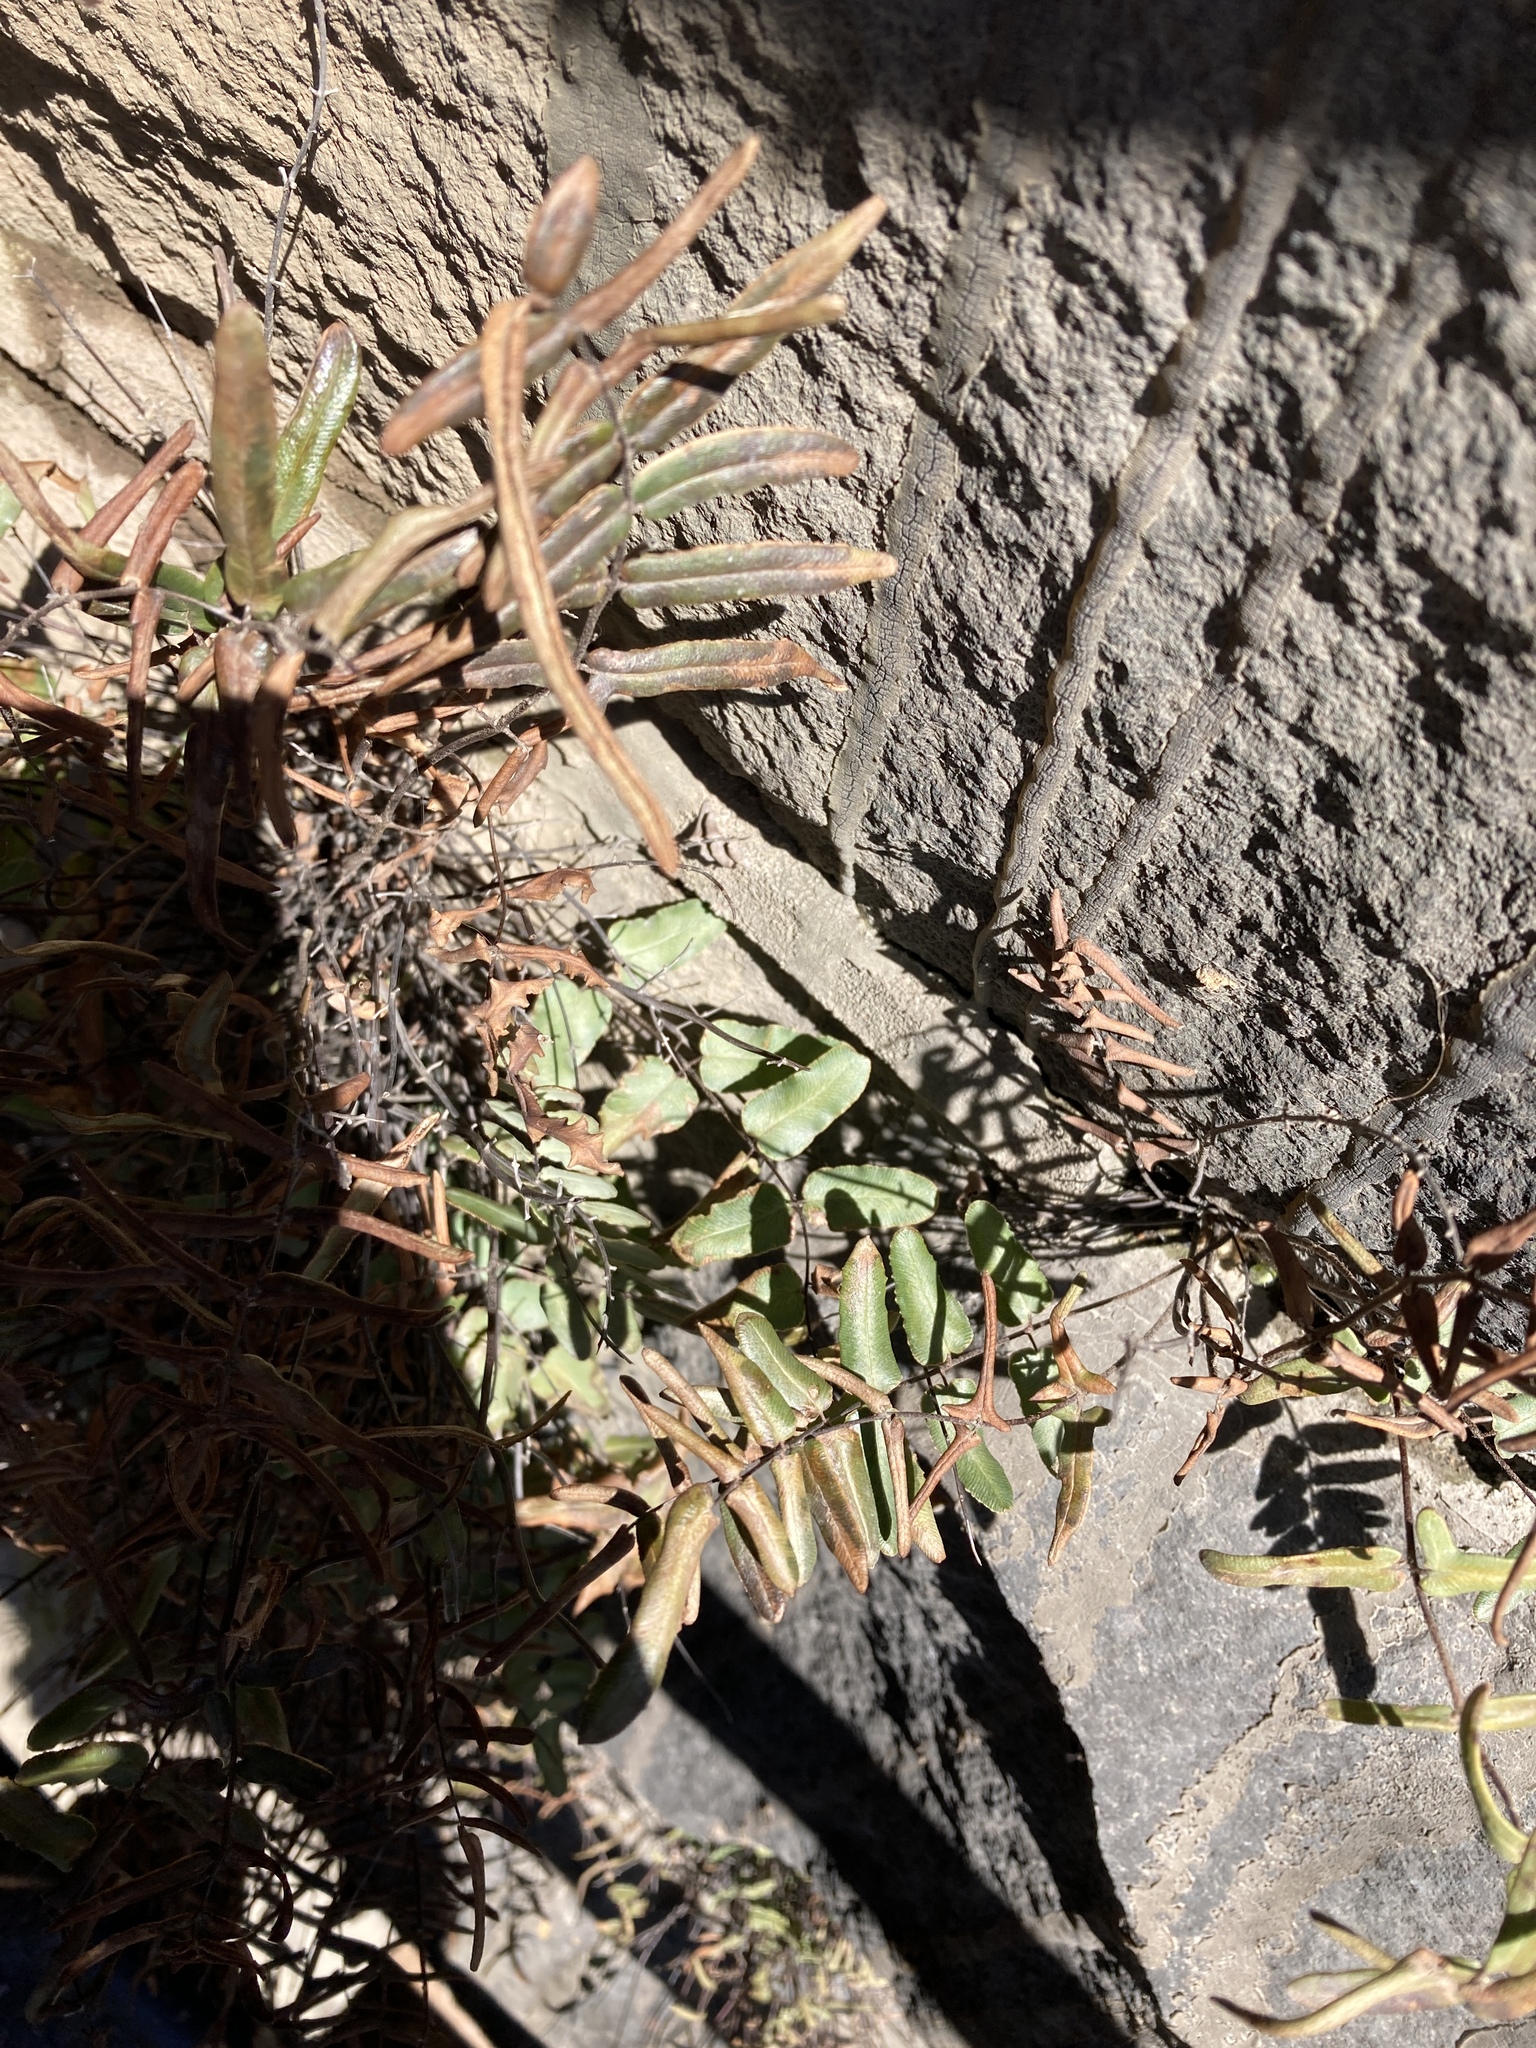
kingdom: Plantae
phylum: Tracheophyta
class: Polypodiopsida
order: Polypodiales
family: Pteridaceae
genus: Pellaea
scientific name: Pellaea atropurpurea
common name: Hairy cliffbrake
